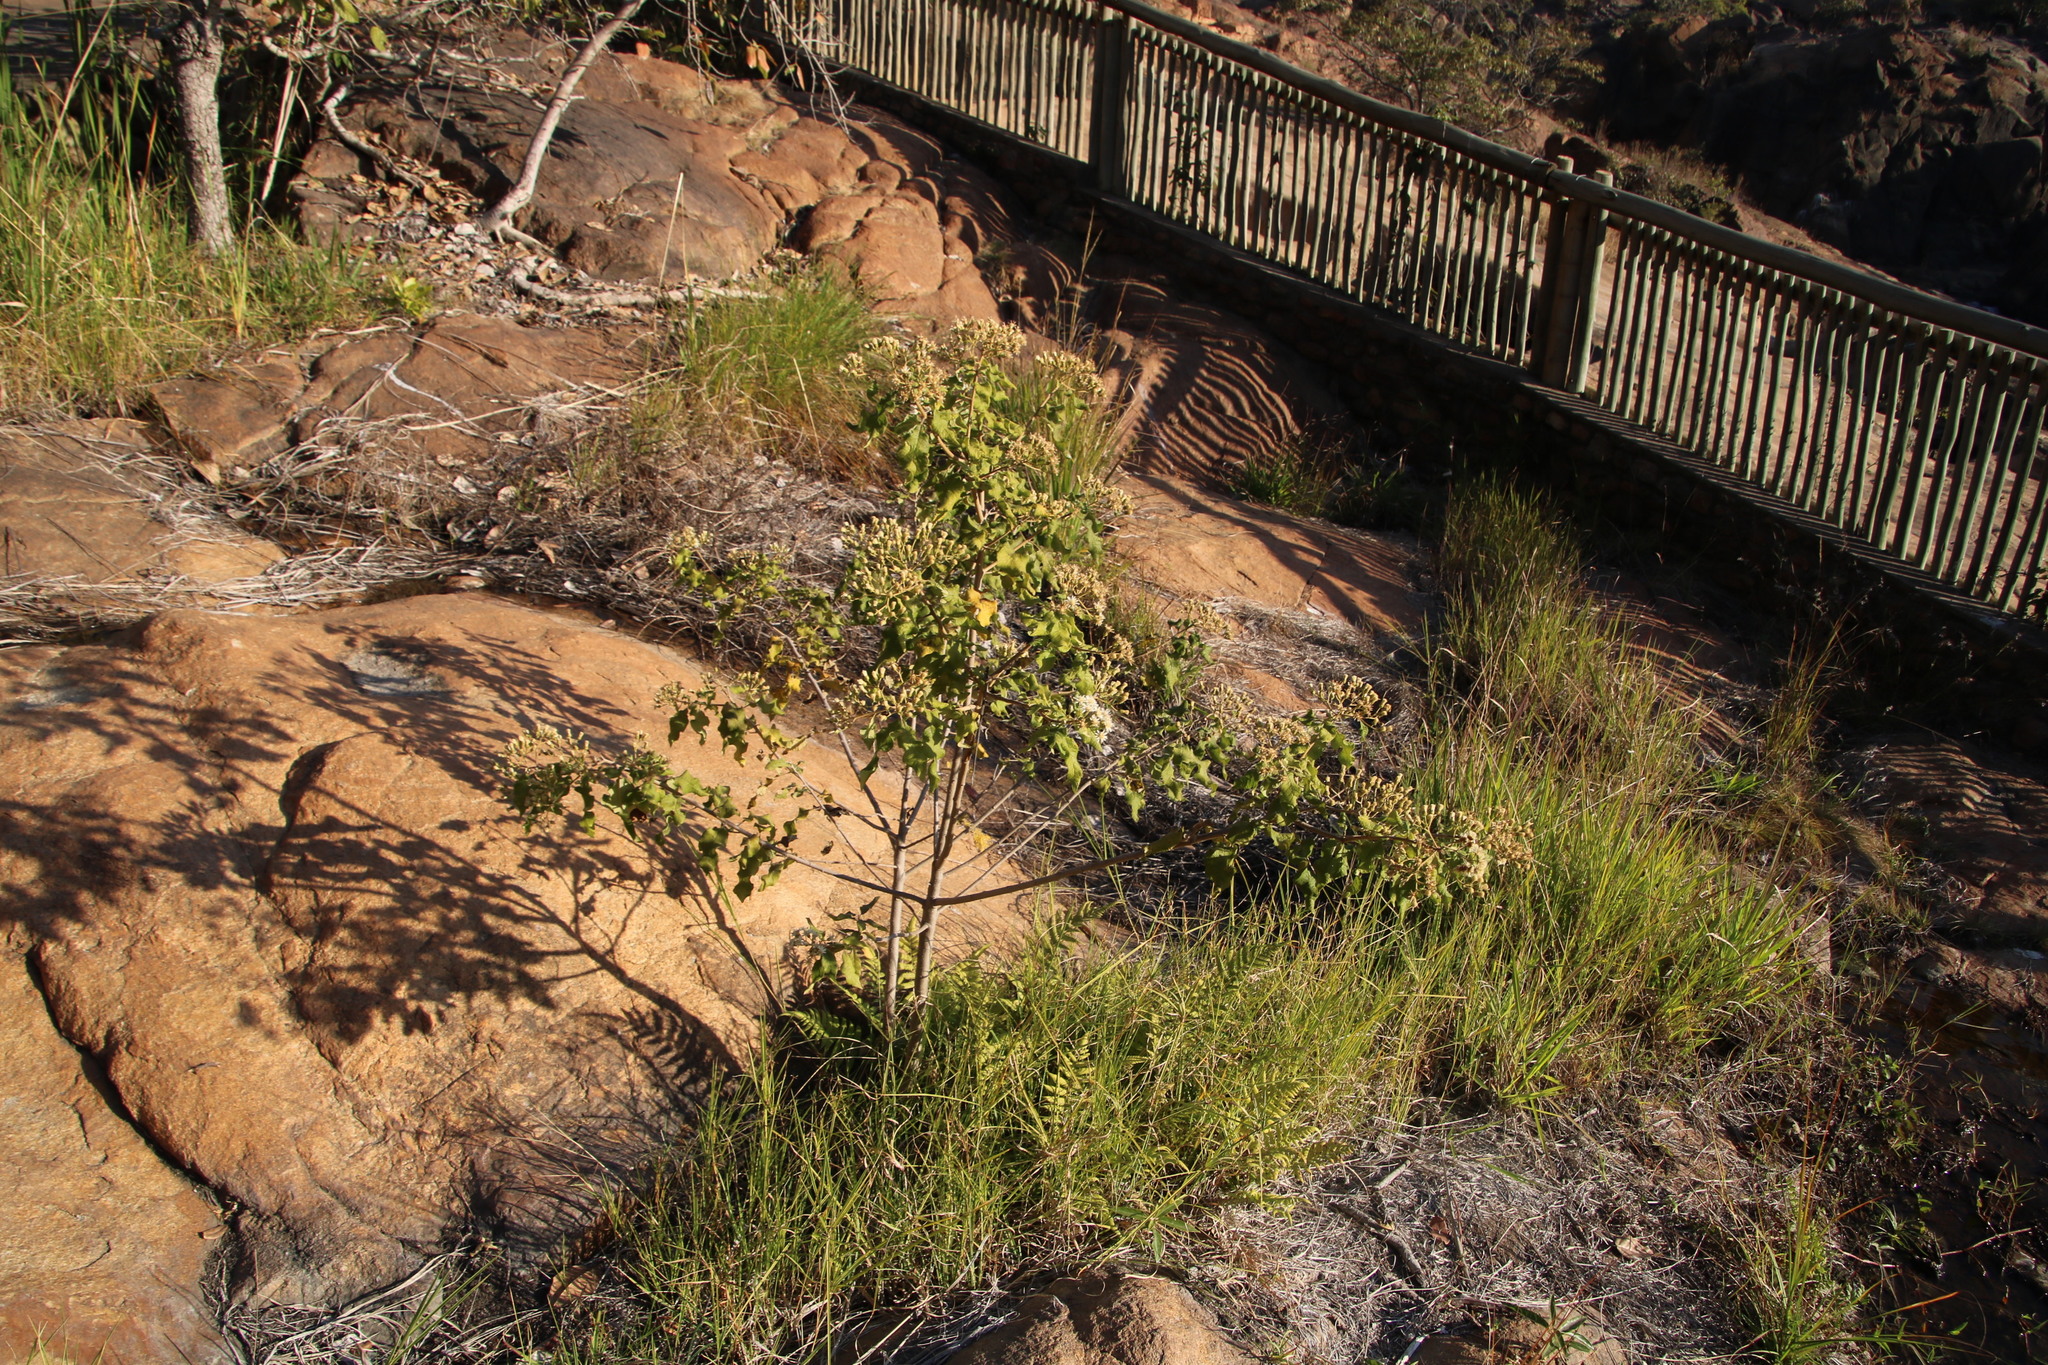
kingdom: Plantae
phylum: Tracheophyta
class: Magnoliopsida
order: Asterales
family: Asteraceae
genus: Vernonia
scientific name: Vernonia colorata
